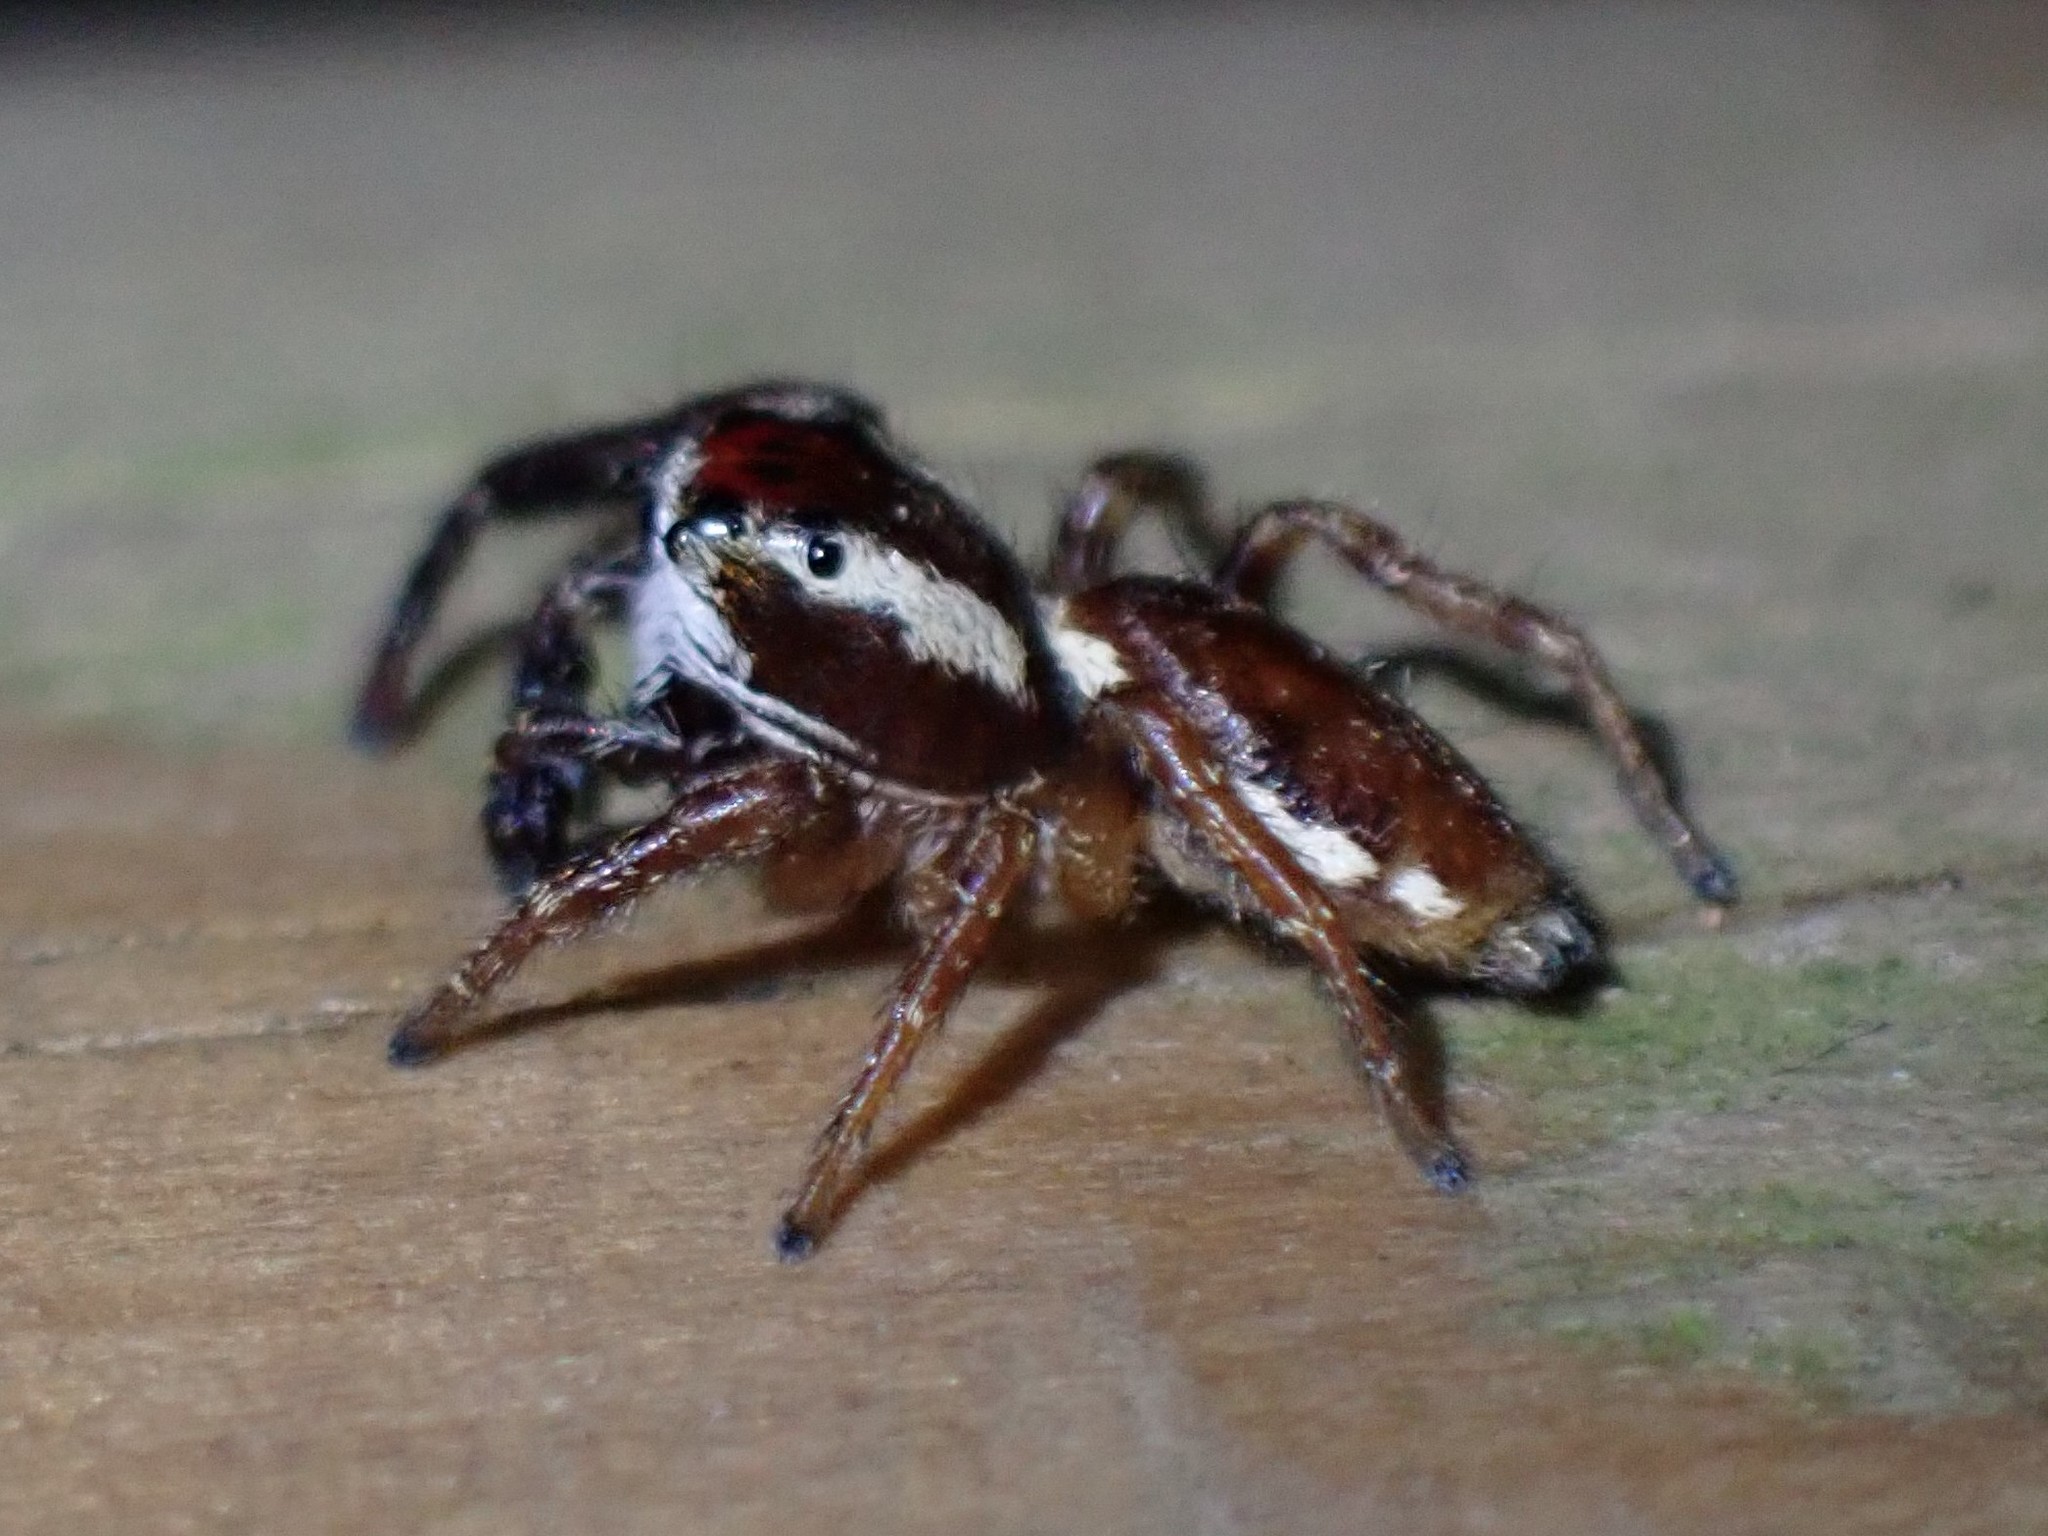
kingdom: Animalia
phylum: Arthropoda
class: Arachnida
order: Araneae
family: Salticidae
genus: Phanias
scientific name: Phanias albeolus
